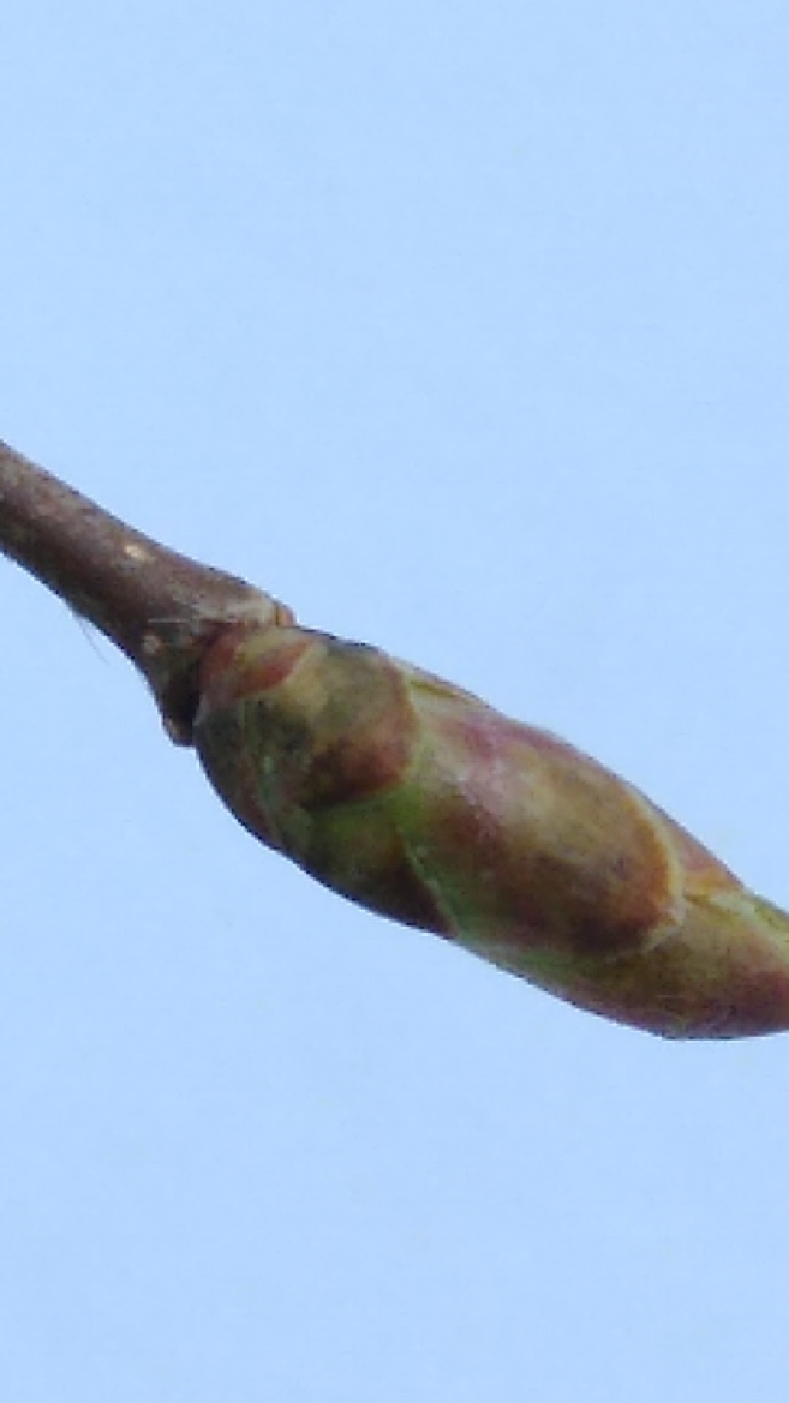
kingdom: Plantae
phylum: Tracheophyta
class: Magnoliopsida
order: Fagales
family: Betulaceae
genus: Ostrya
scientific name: Ostrya virginiana
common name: Ironwood
